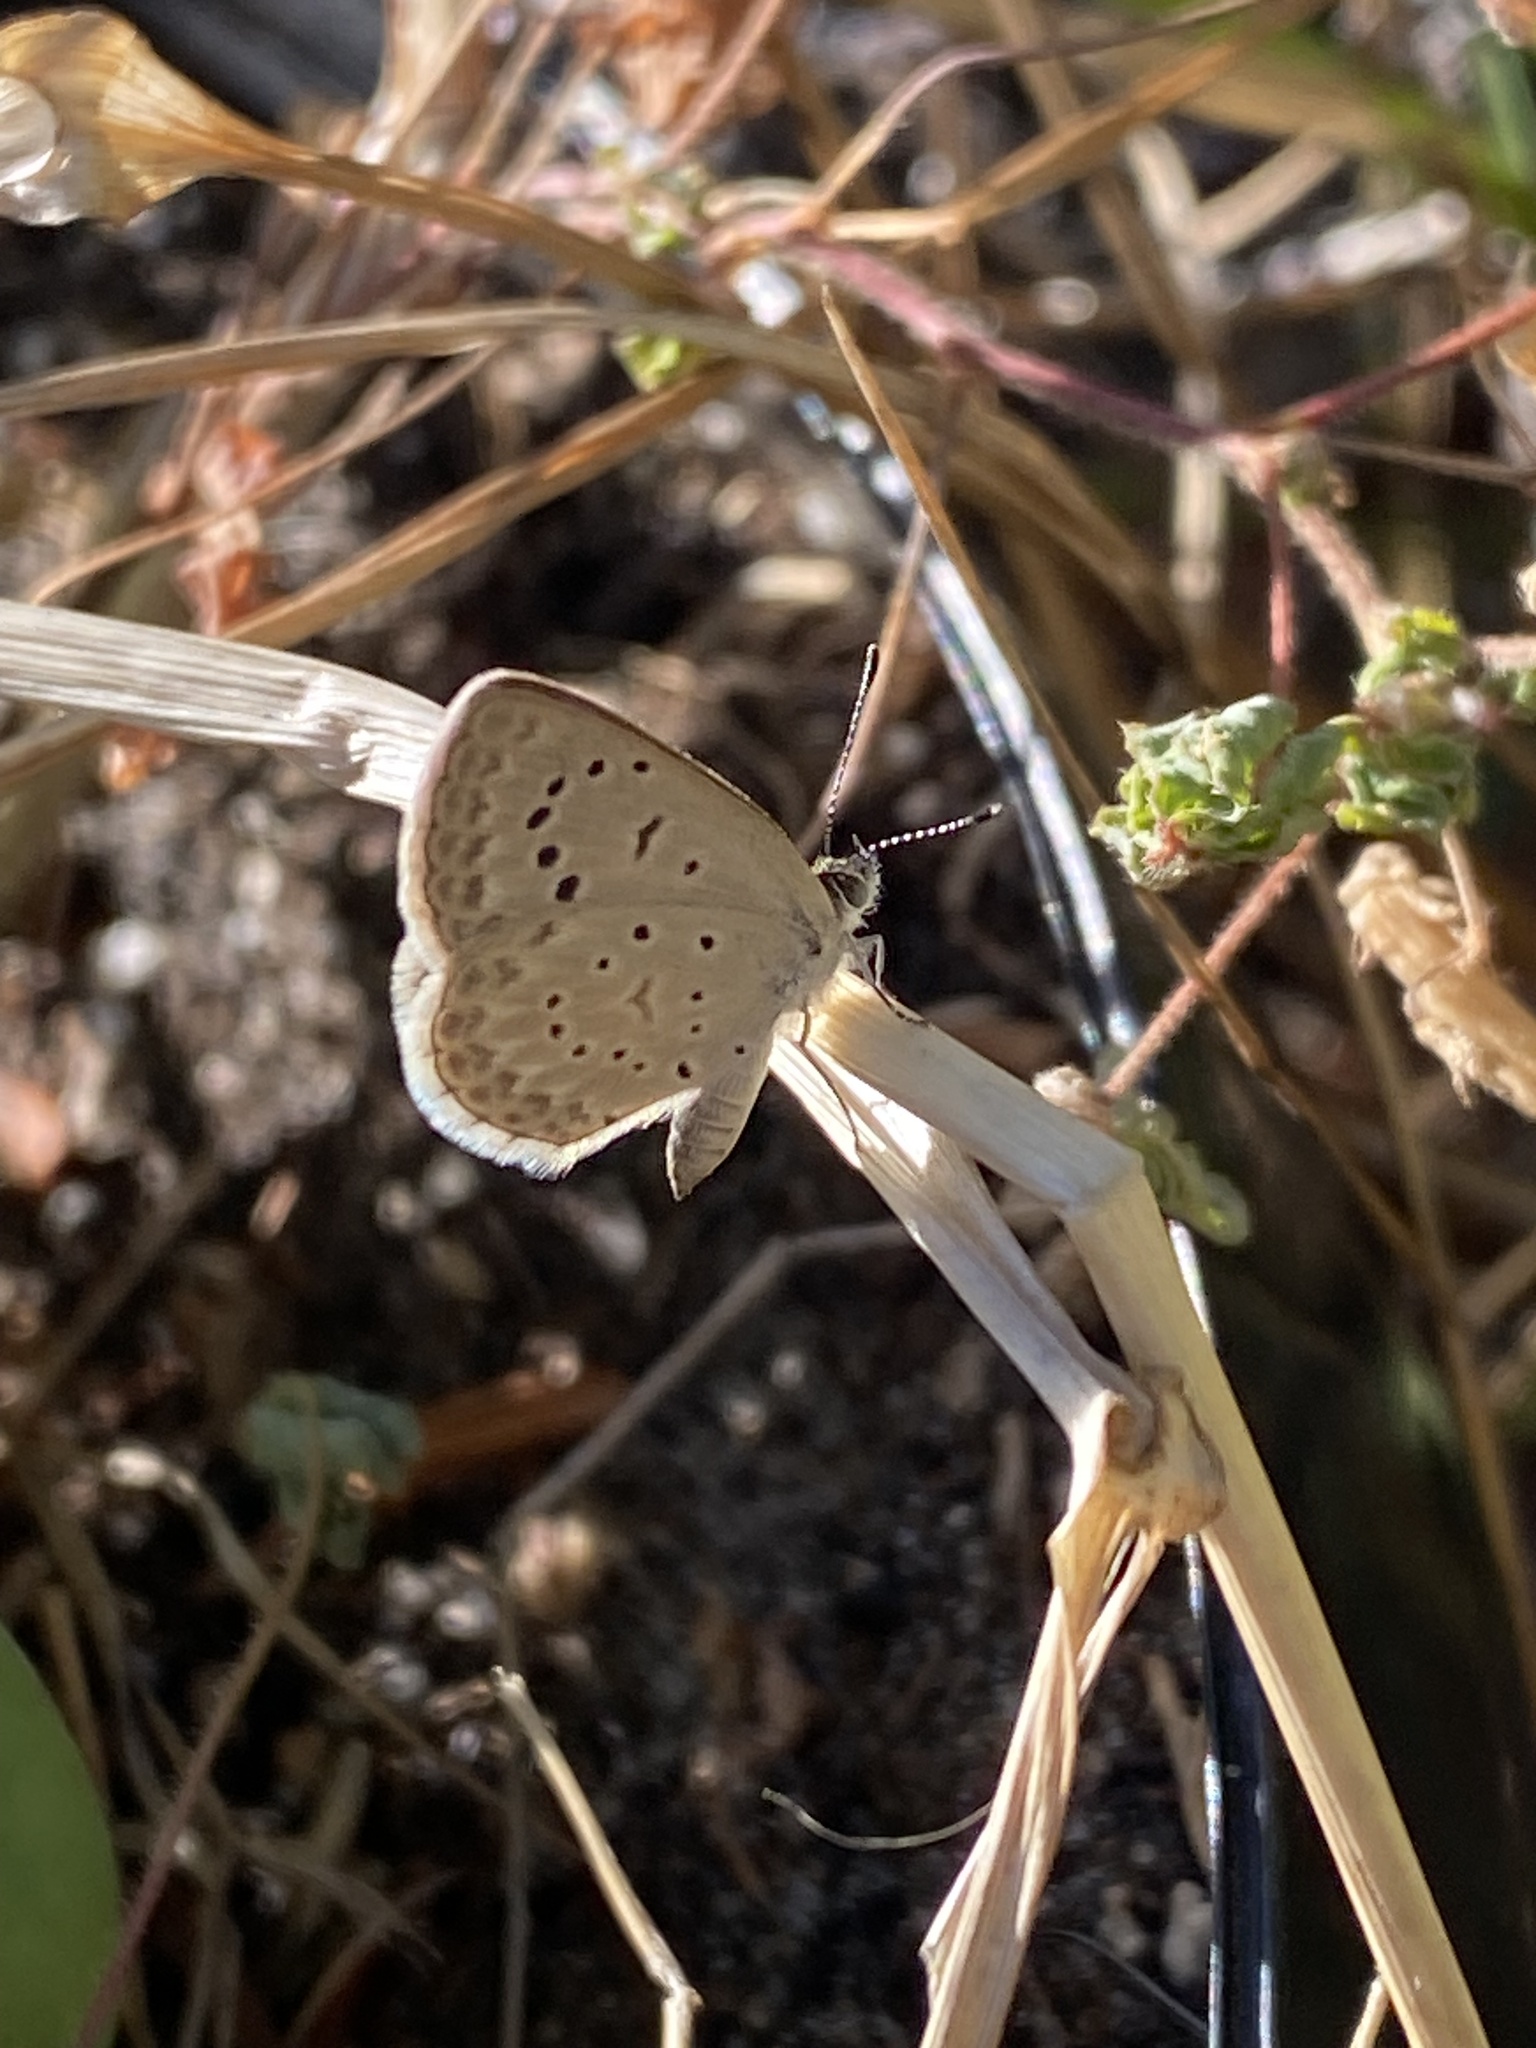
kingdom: Animalia
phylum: Arthropoda
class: Insecta
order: Lepidoptera
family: Lycaenidae
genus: Zizeeria
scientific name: Zizeeria knysna
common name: African grass blue
